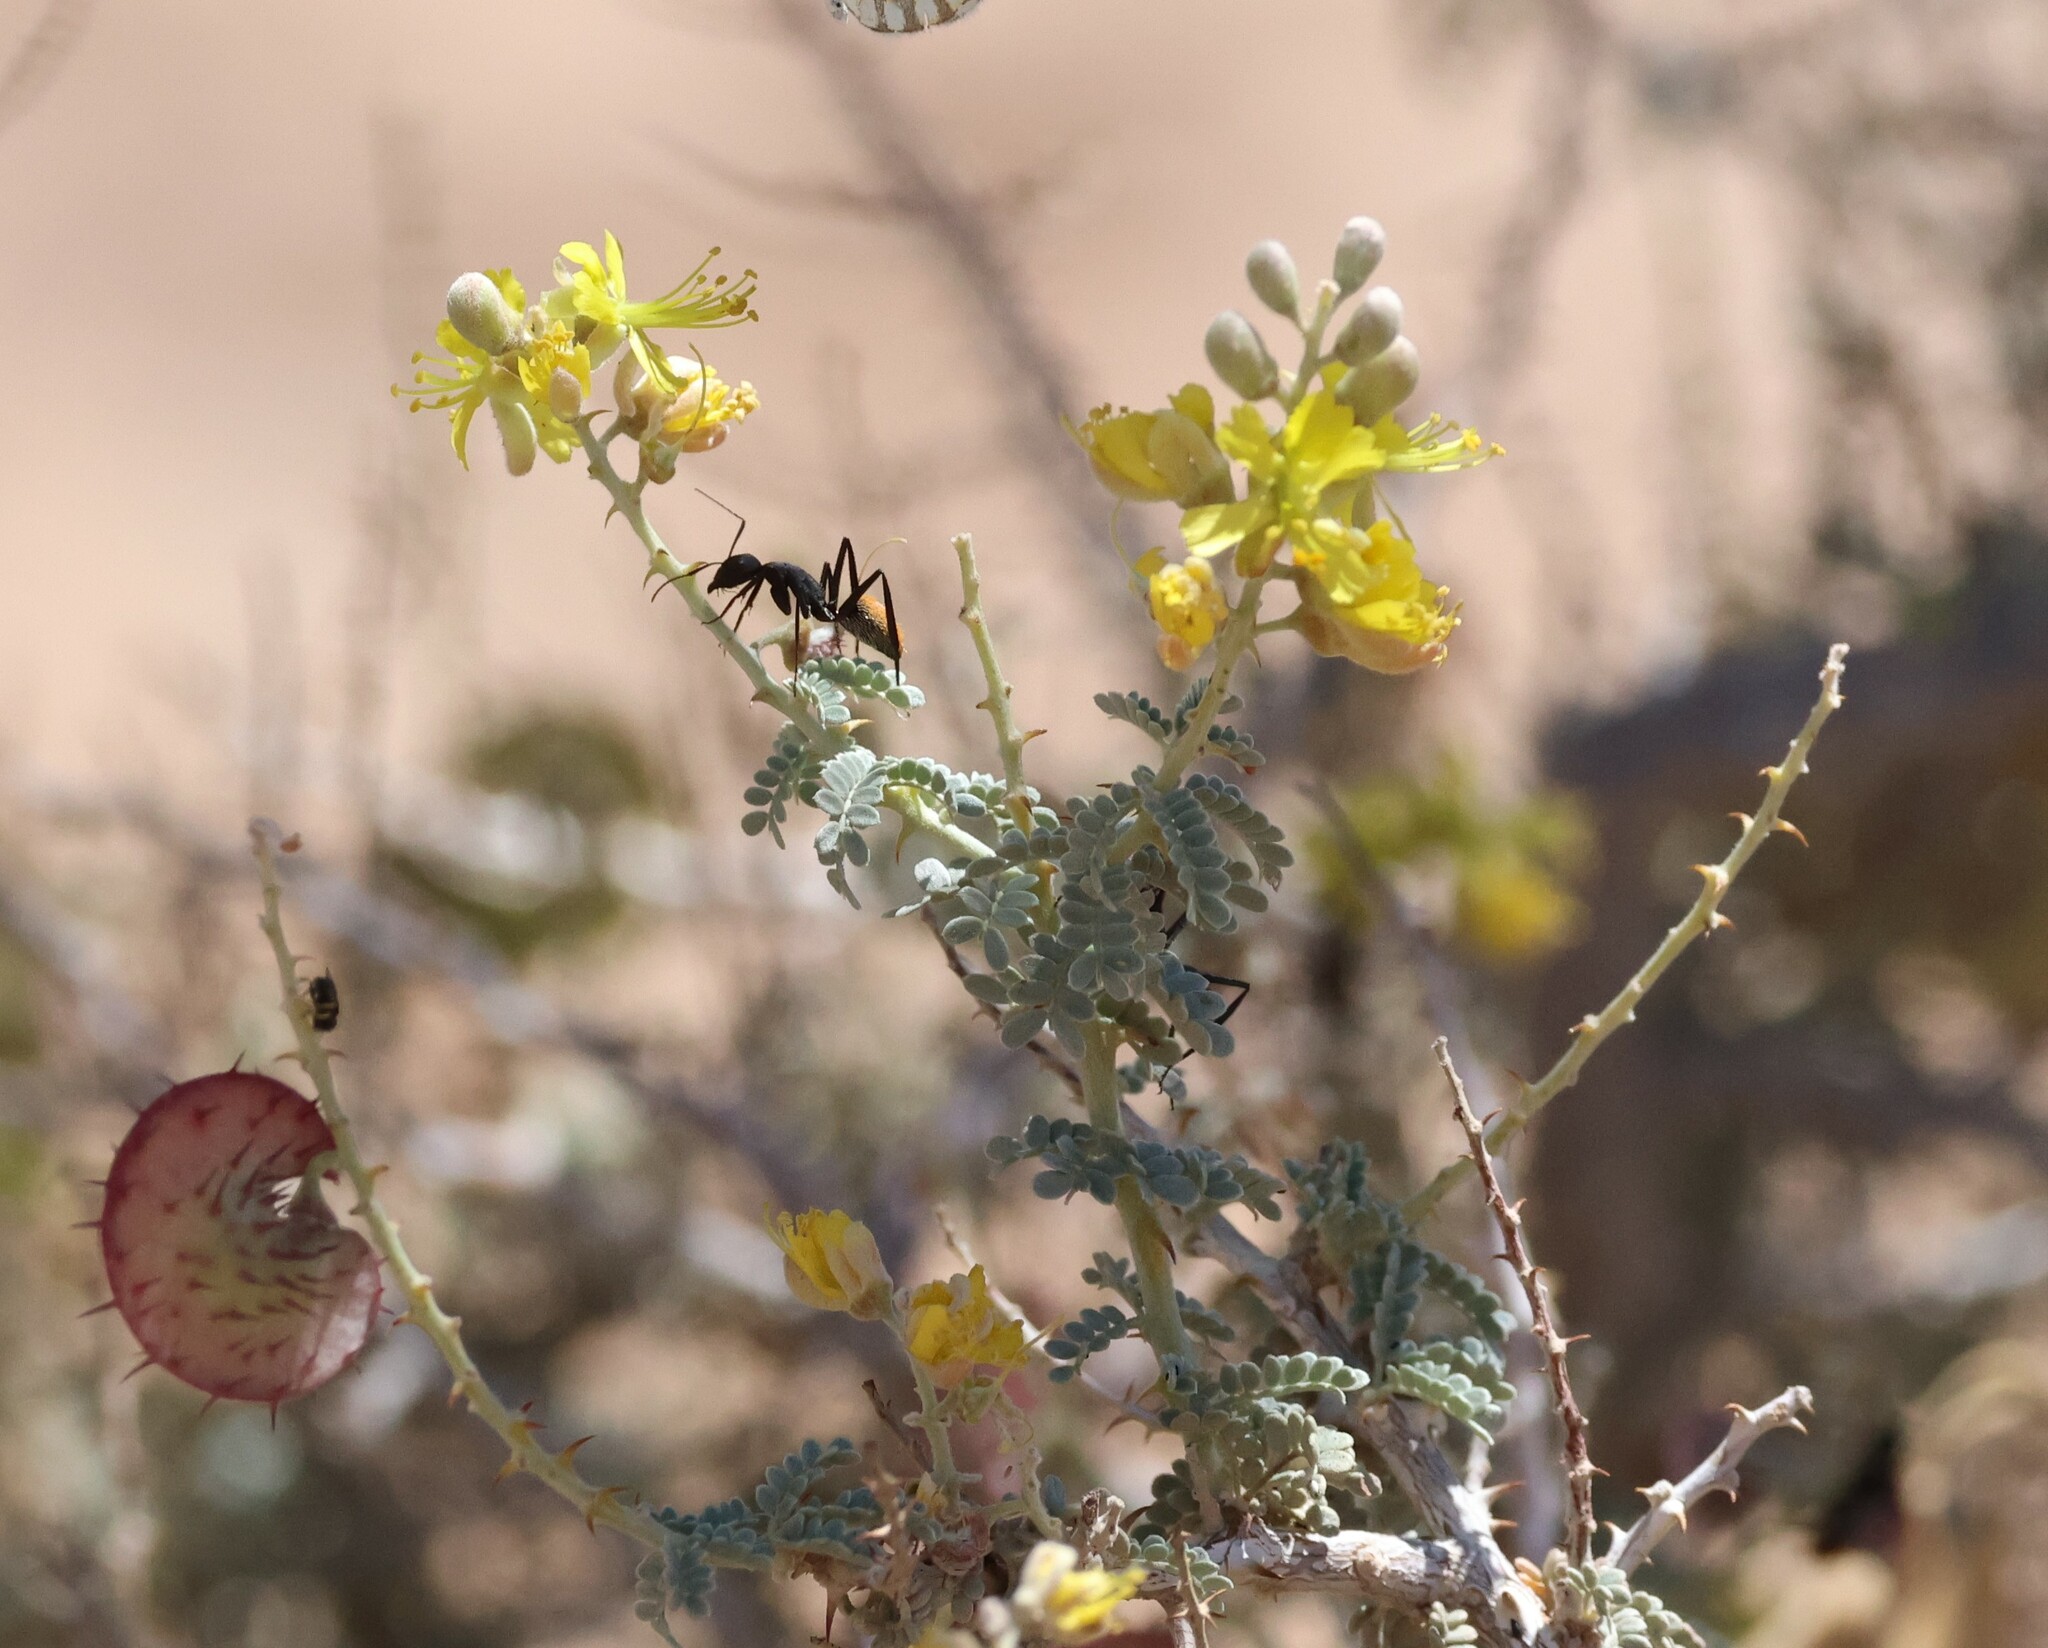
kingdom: Plantae
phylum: Tracheophyta
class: Magnoliopsida
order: Fabales
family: Fabaceae
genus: Hererolandia
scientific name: Hererolandia pearsonii
